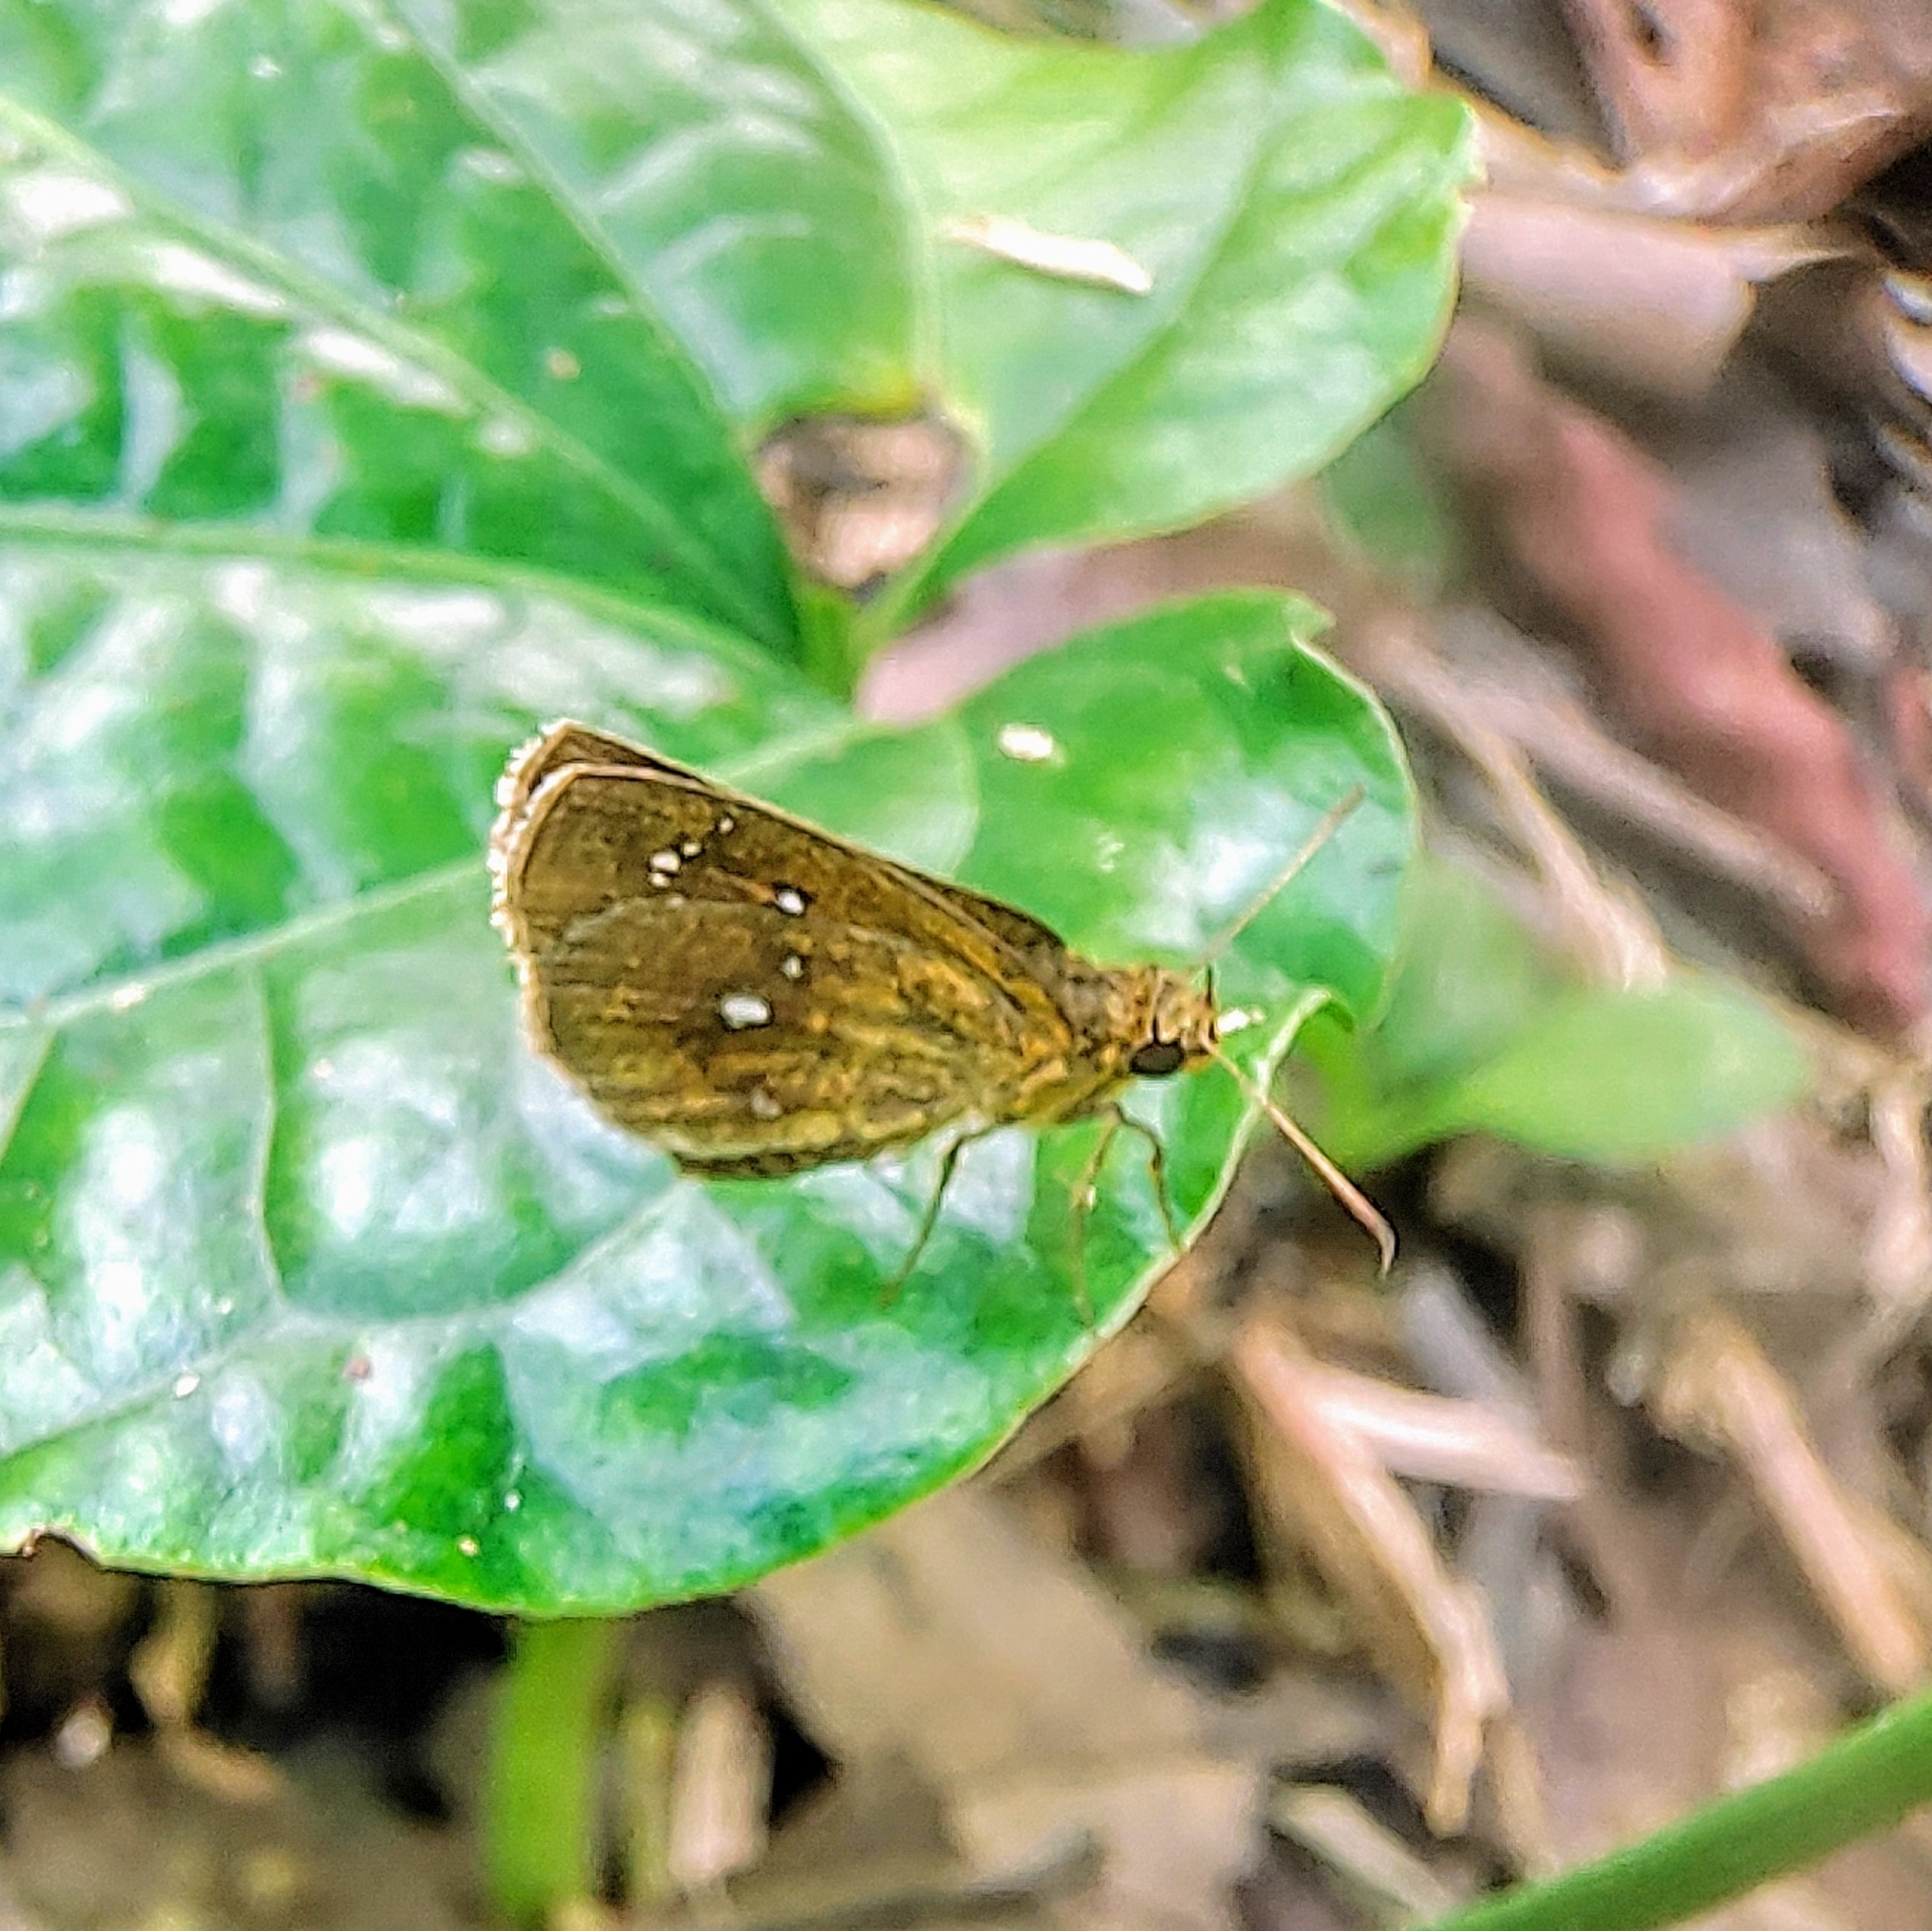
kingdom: Animalia
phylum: Arthropoda
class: Insecta
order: Lepidoptera
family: Hesperiidae
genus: Iambrix
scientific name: Iambrix salsala
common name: Chestnut bob
